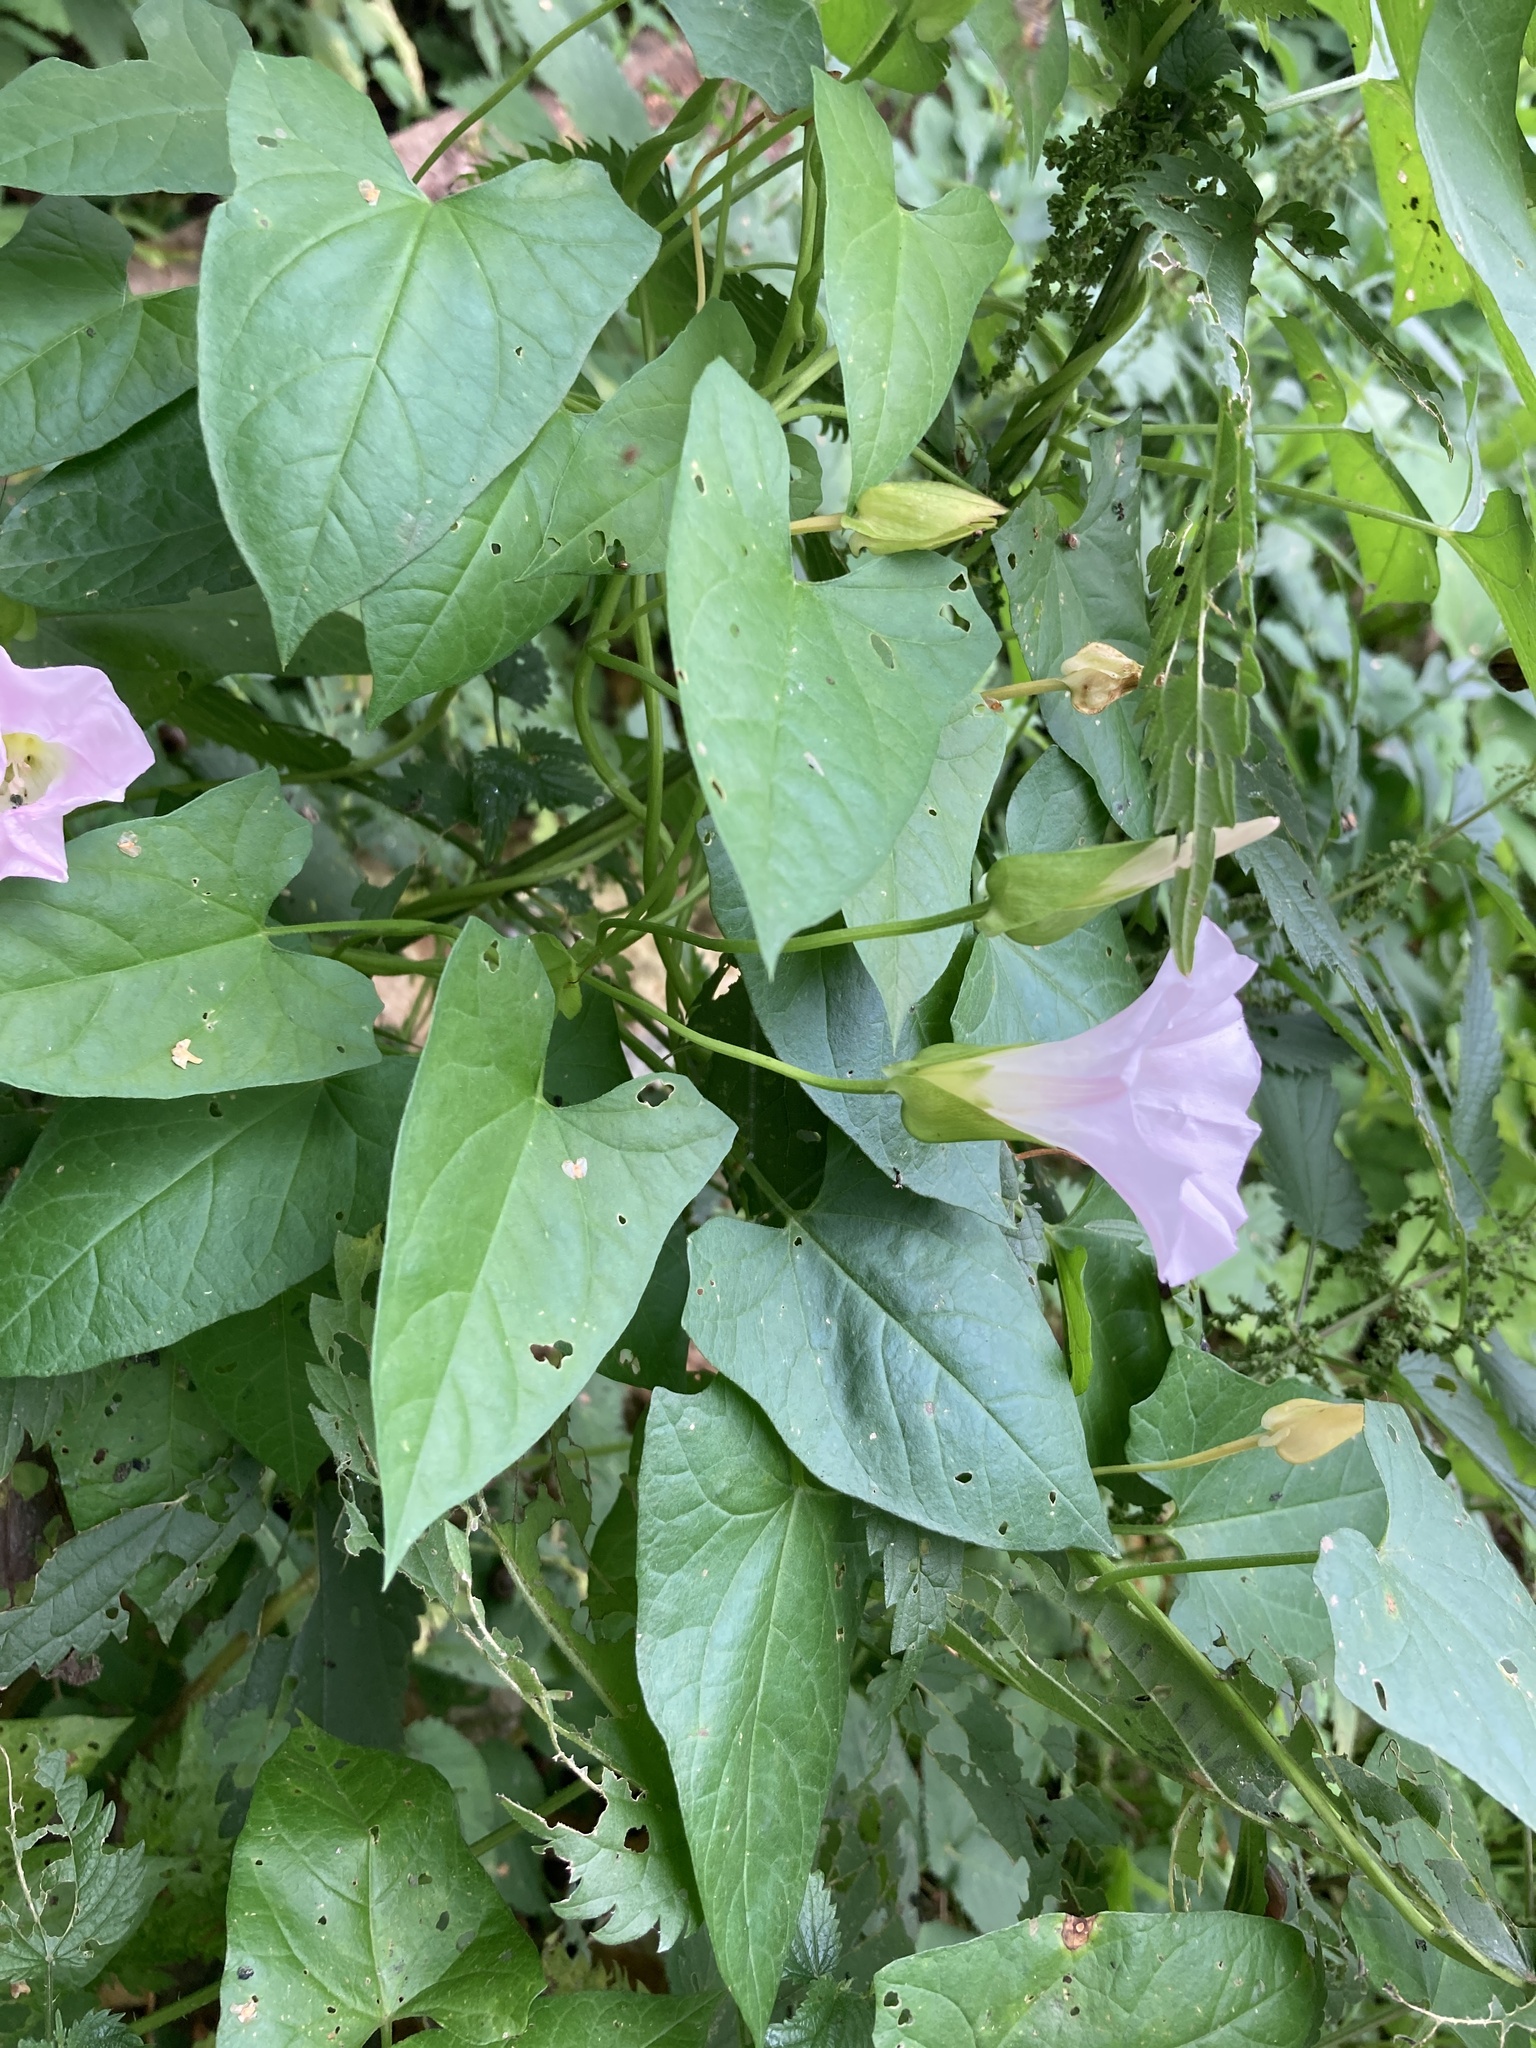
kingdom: Plantae
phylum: Tracheophyta
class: Magnoliopsida
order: Solanales
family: Convolvulaceae
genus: Calystegia
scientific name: Calystegia sepium
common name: Hedge bindweed
